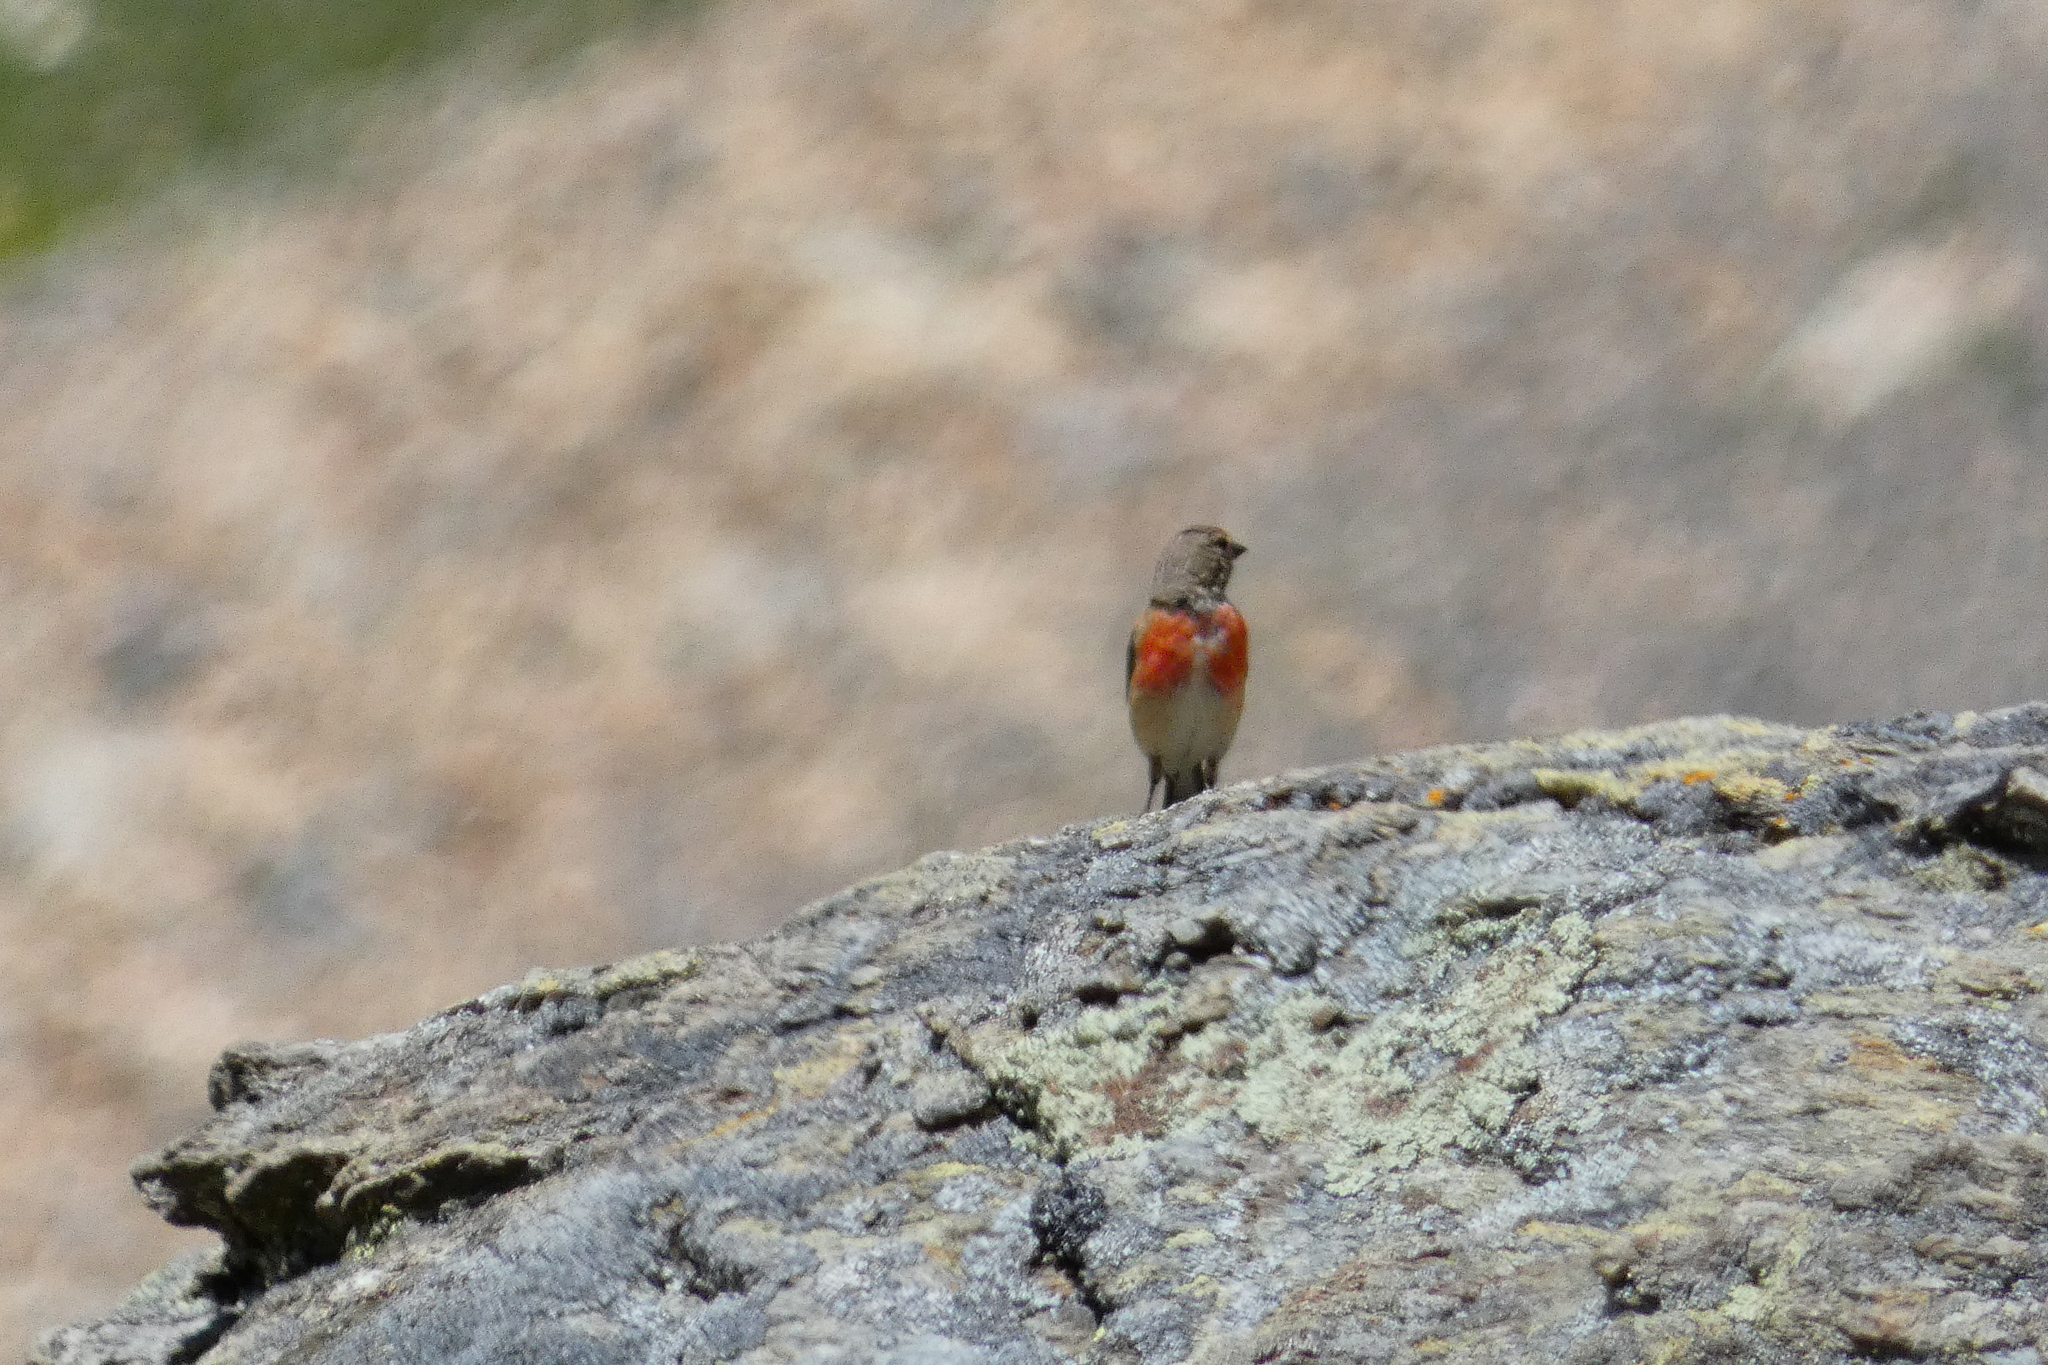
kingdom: Animalia
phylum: Chordata
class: Aves
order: Passeriformes
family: Fringillidae
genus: Linaria
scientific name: Linaria cannabina
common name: Common linnet
